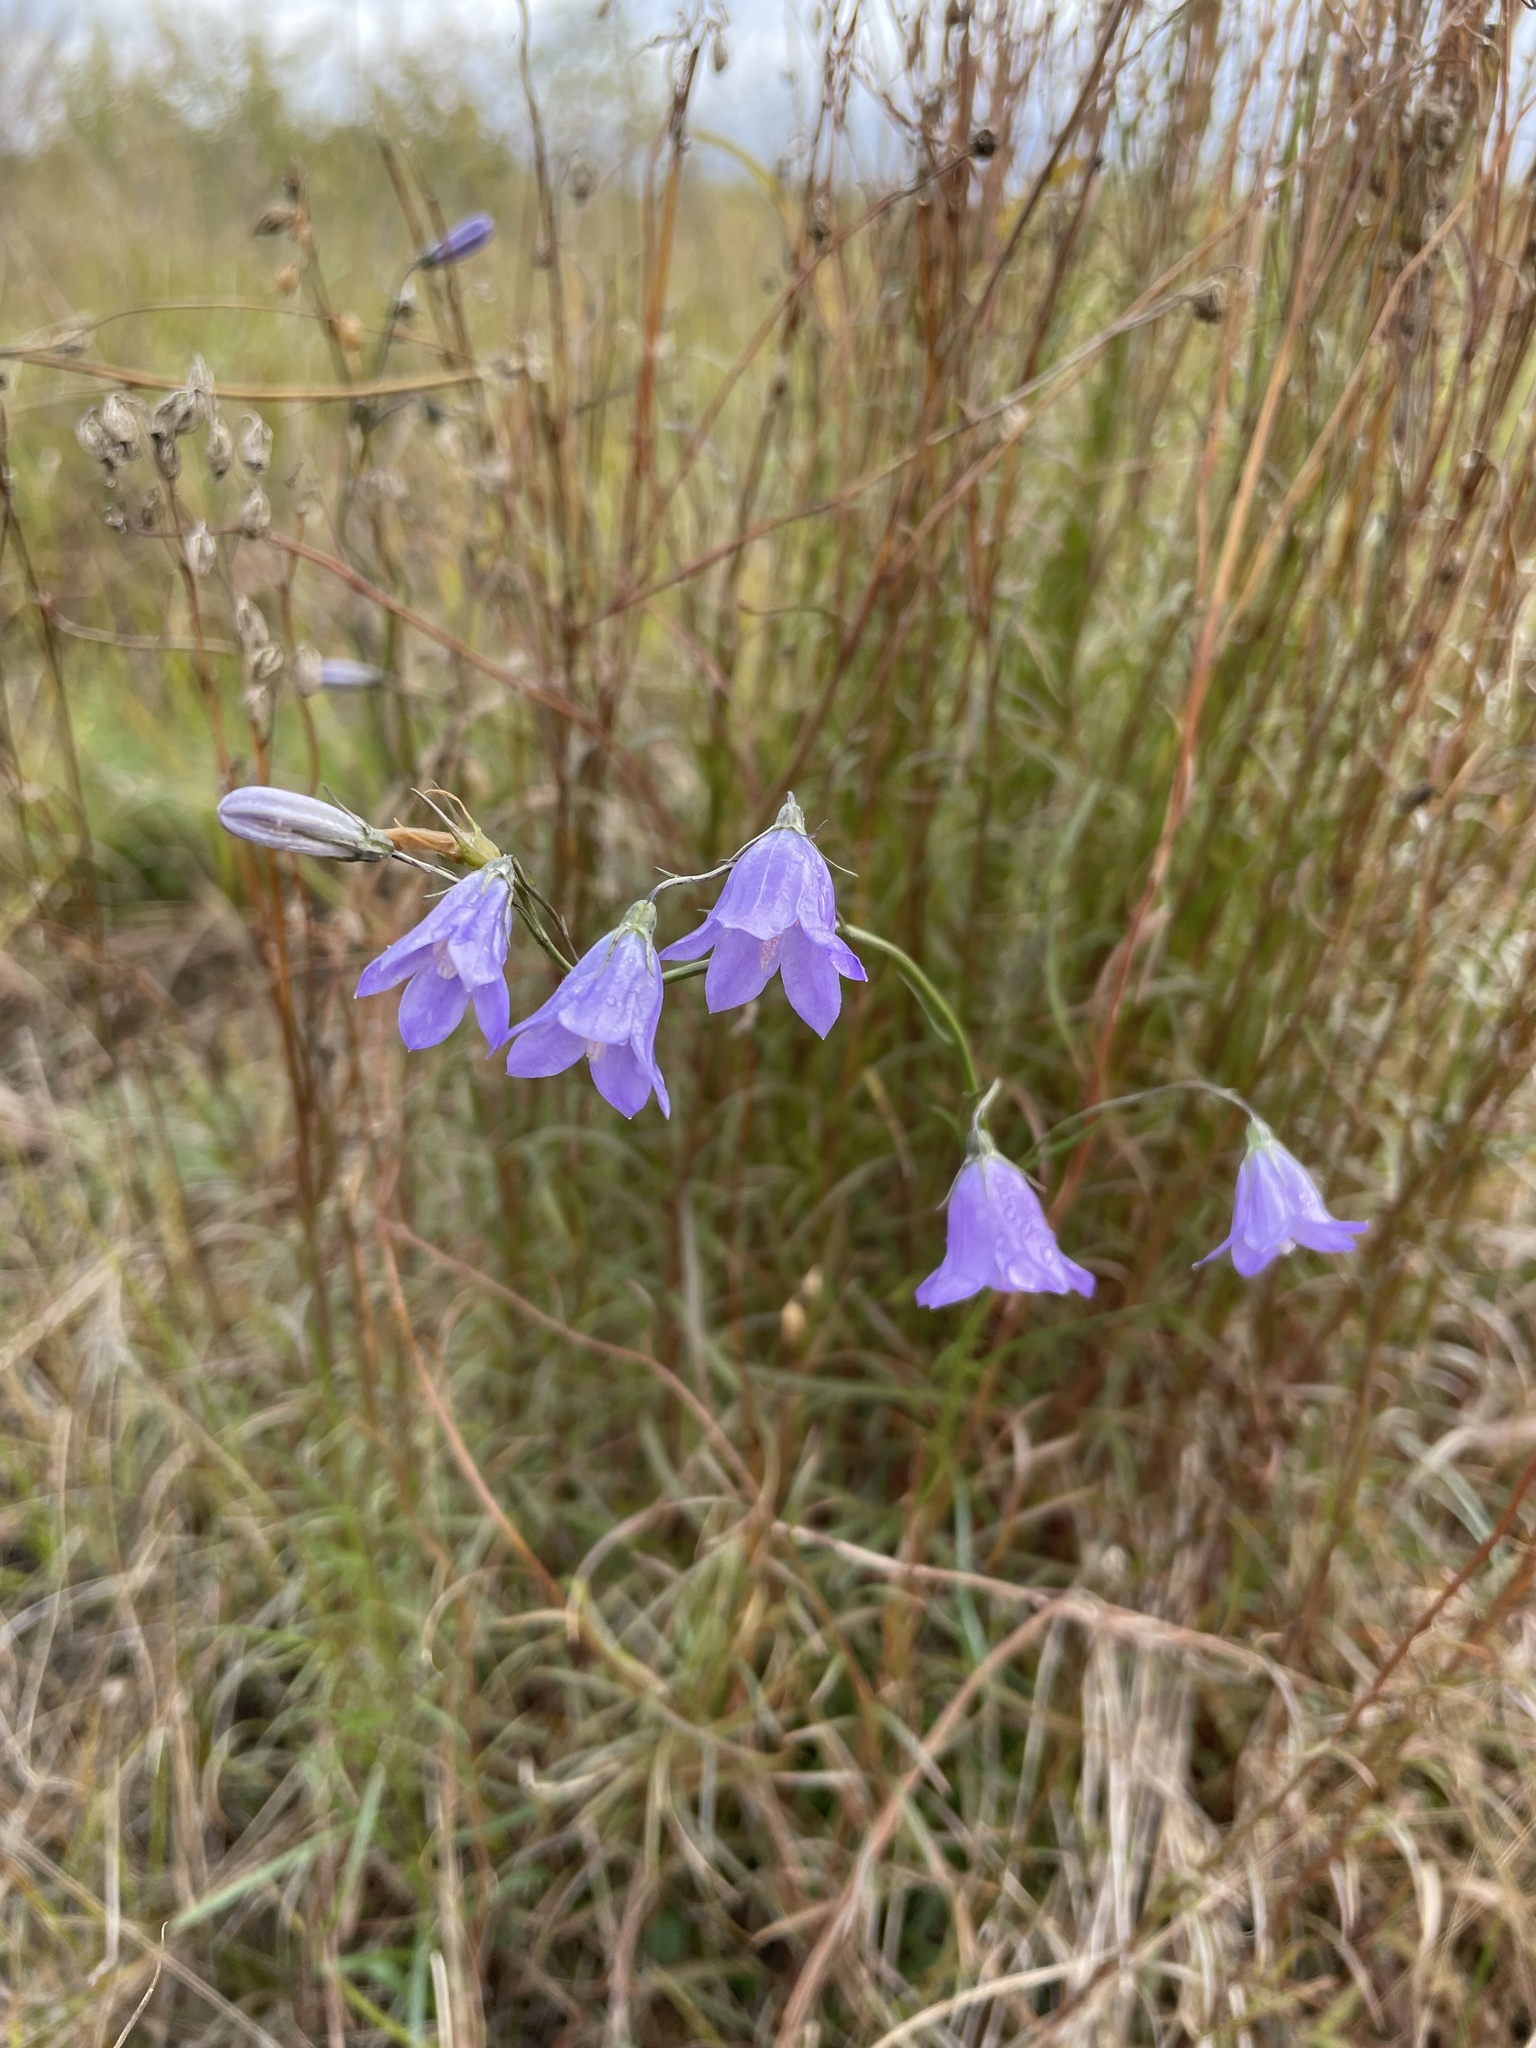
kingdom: Plantae
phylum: Tracheophyta
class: Magnoliopsida
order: Asterales
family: Campanulaceae
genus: Campanula
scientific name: Campanula intercedens
